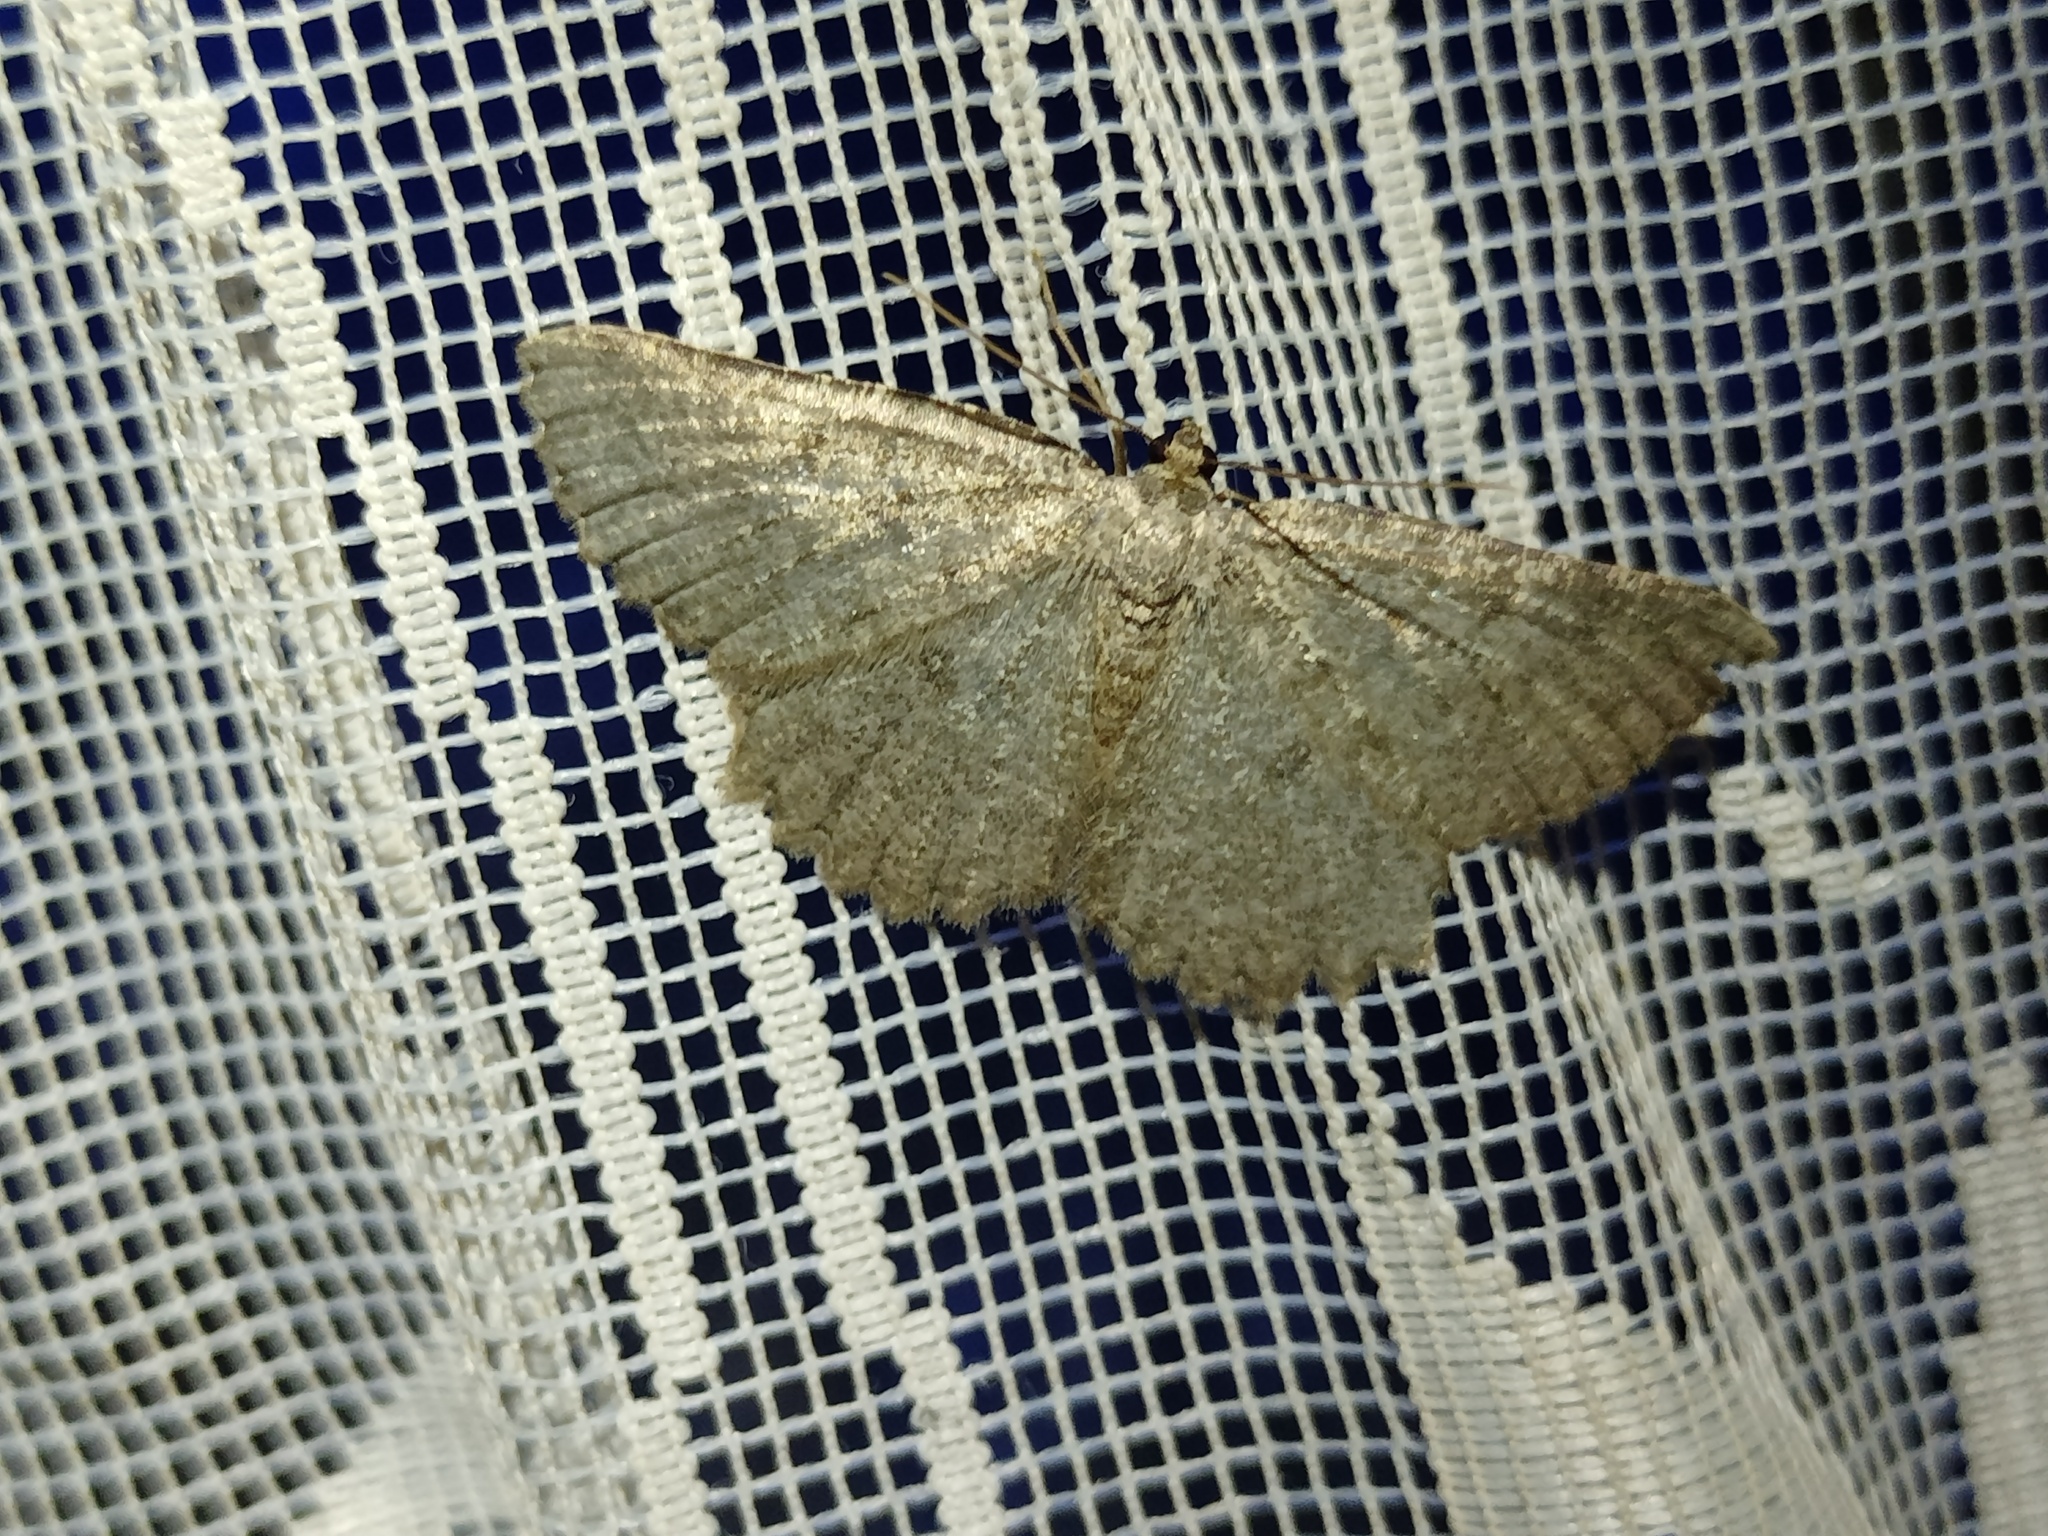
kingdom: Animalia
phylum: Arthropoda
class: Insecta
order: Lepidoptera
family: Geometridae
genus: Charissa
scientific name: Charissa obscurata
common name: Annulet
